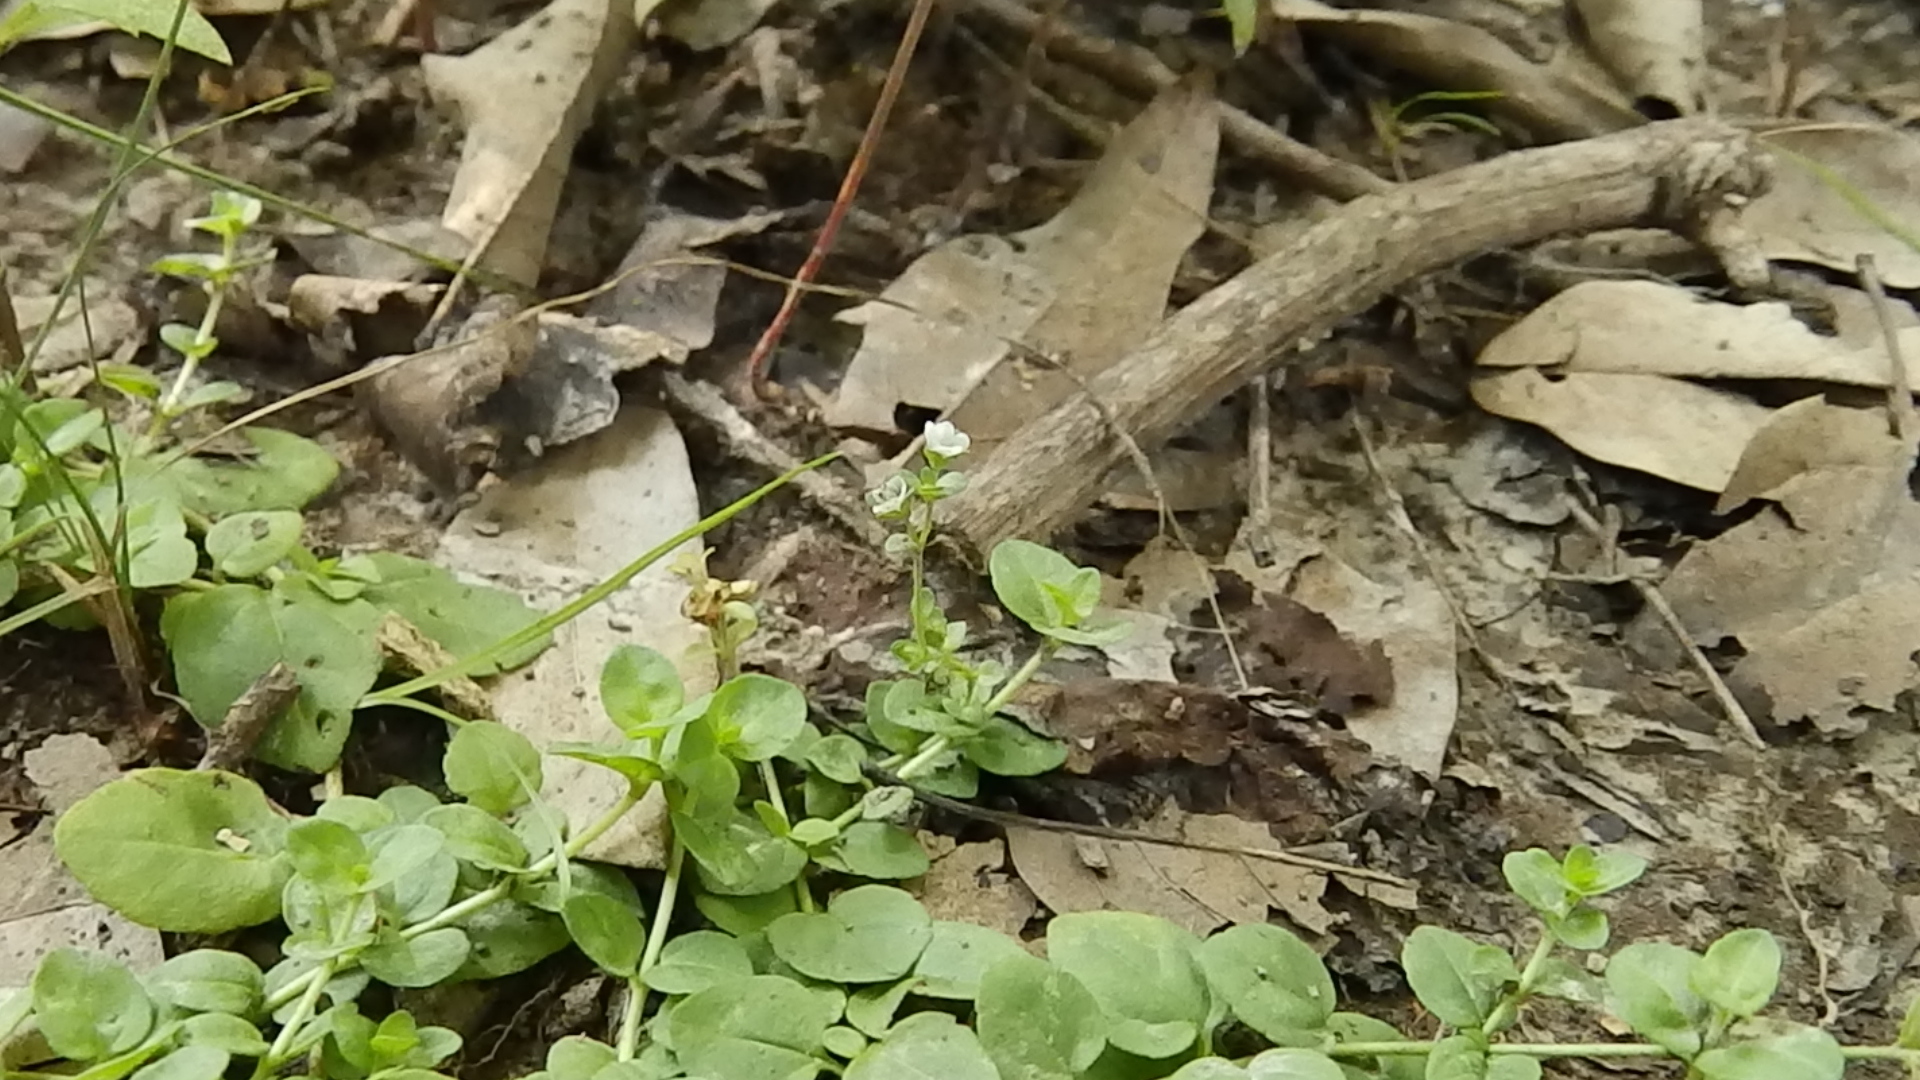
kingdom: Plantae
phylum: Tracheophyta
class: Magnoliopsida
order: Lamiales
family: Plantaginaceae
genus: Veronica
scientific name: Veronica serpyllifolia
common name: Thyme-leaved speedwell
